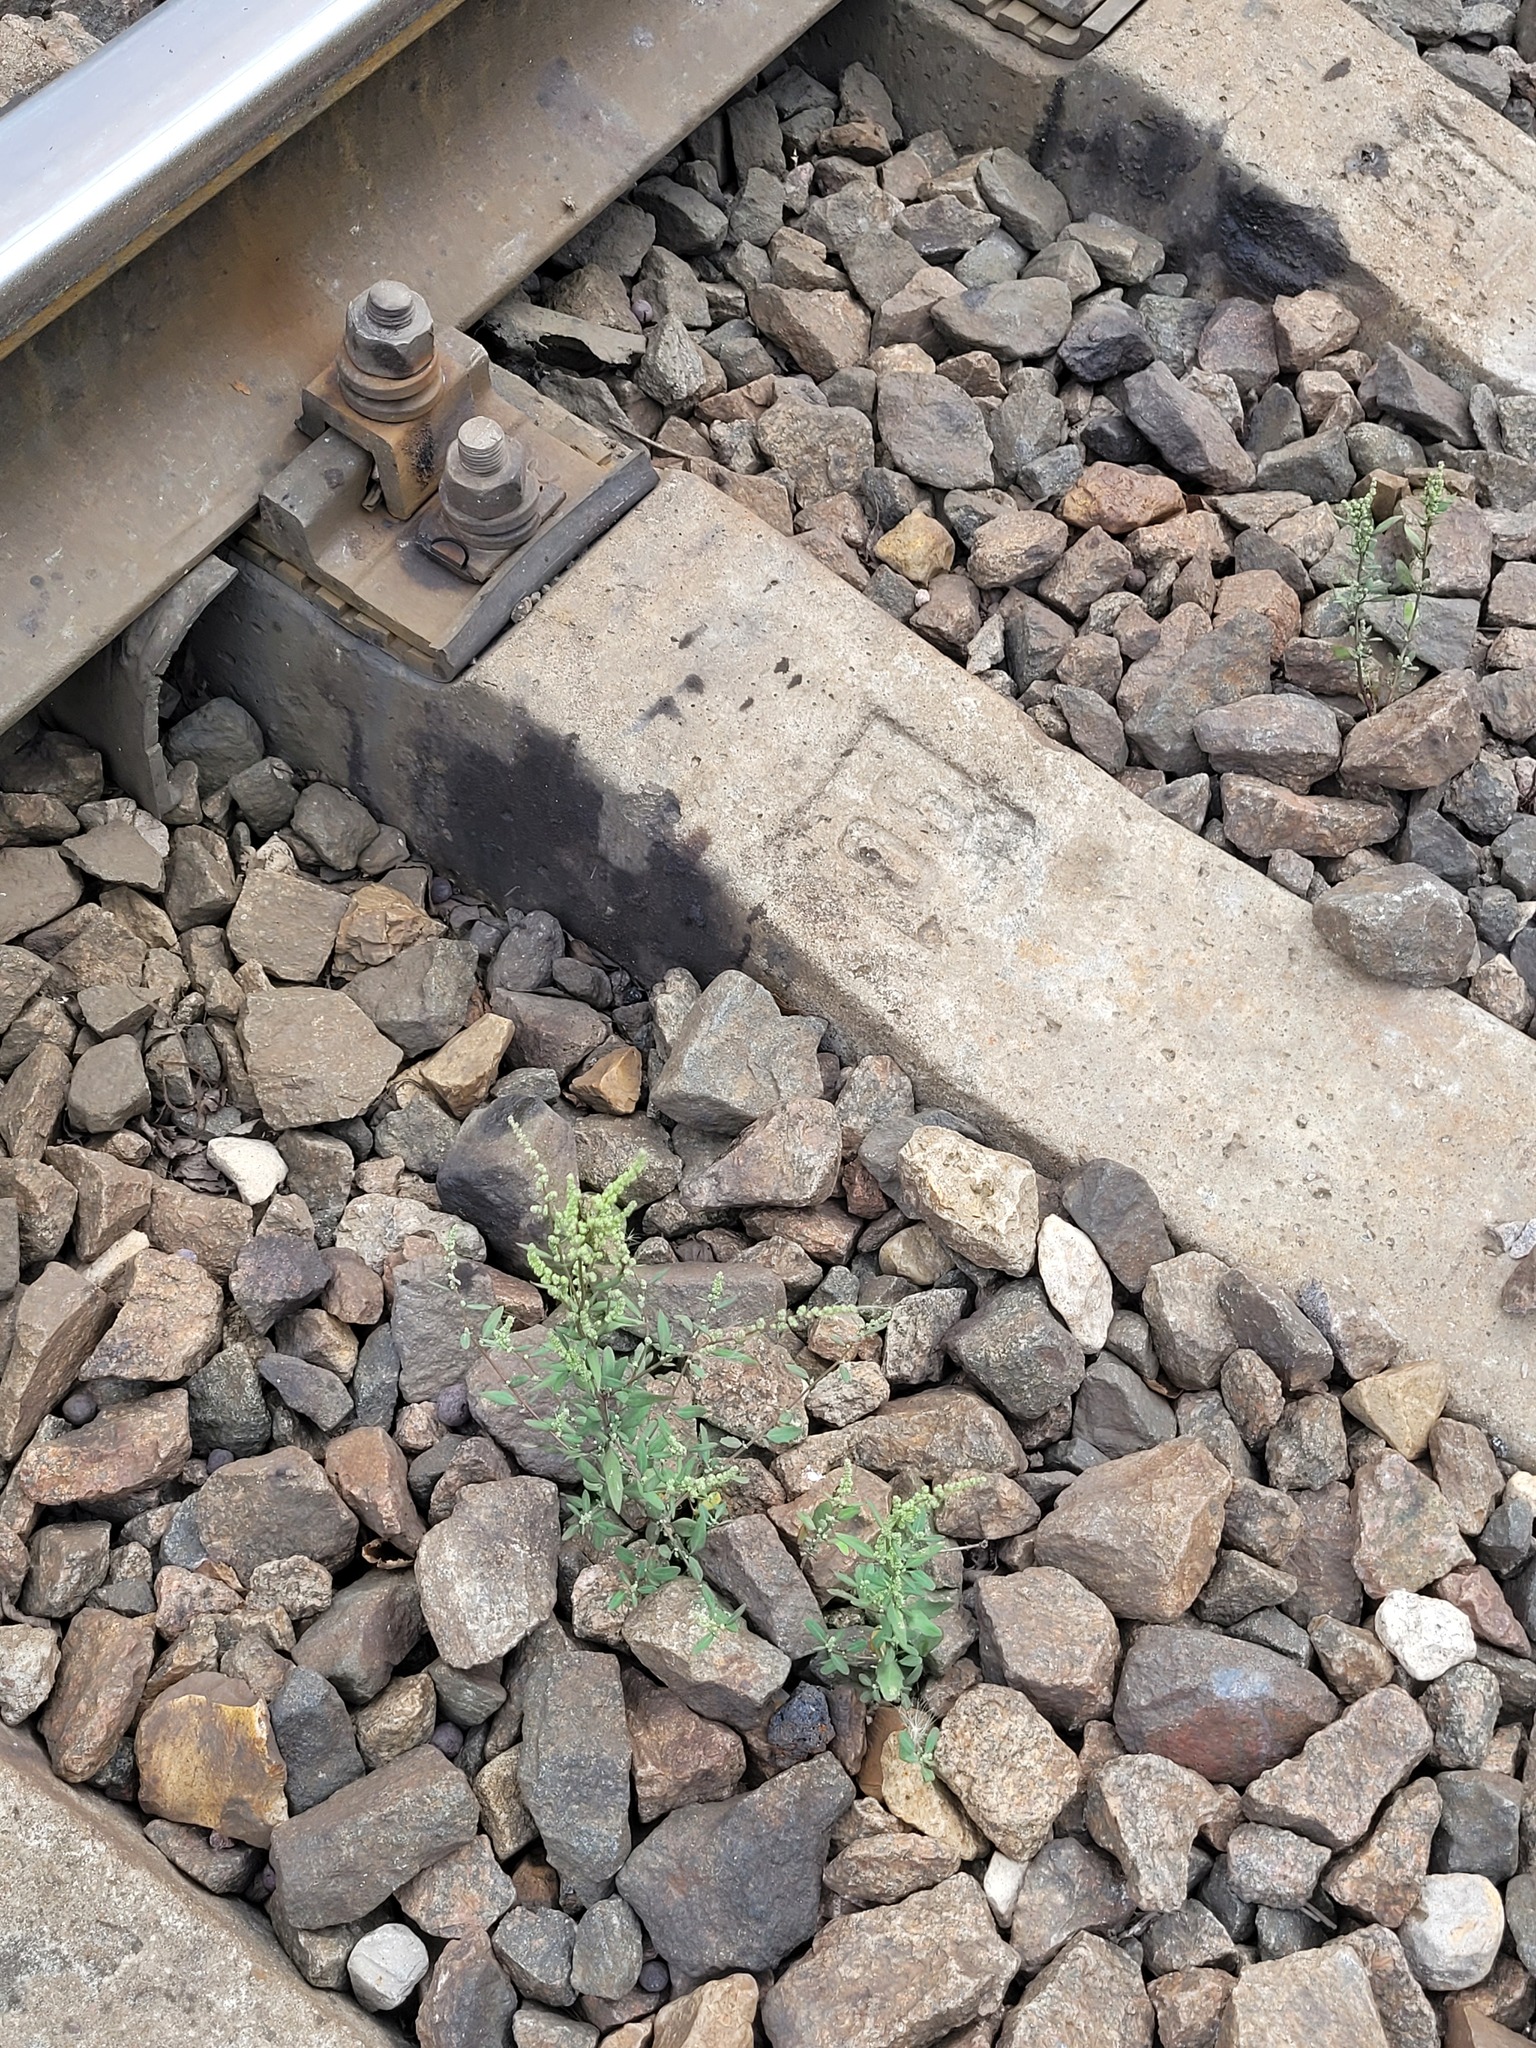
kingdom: Plantae
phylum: Tracheophyta
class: Magnoliopsida
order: Caryophyllales
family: Amaranthaceae
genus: Chenopodium
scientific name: Chenopodium betaceum
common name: Striped goosefoot
